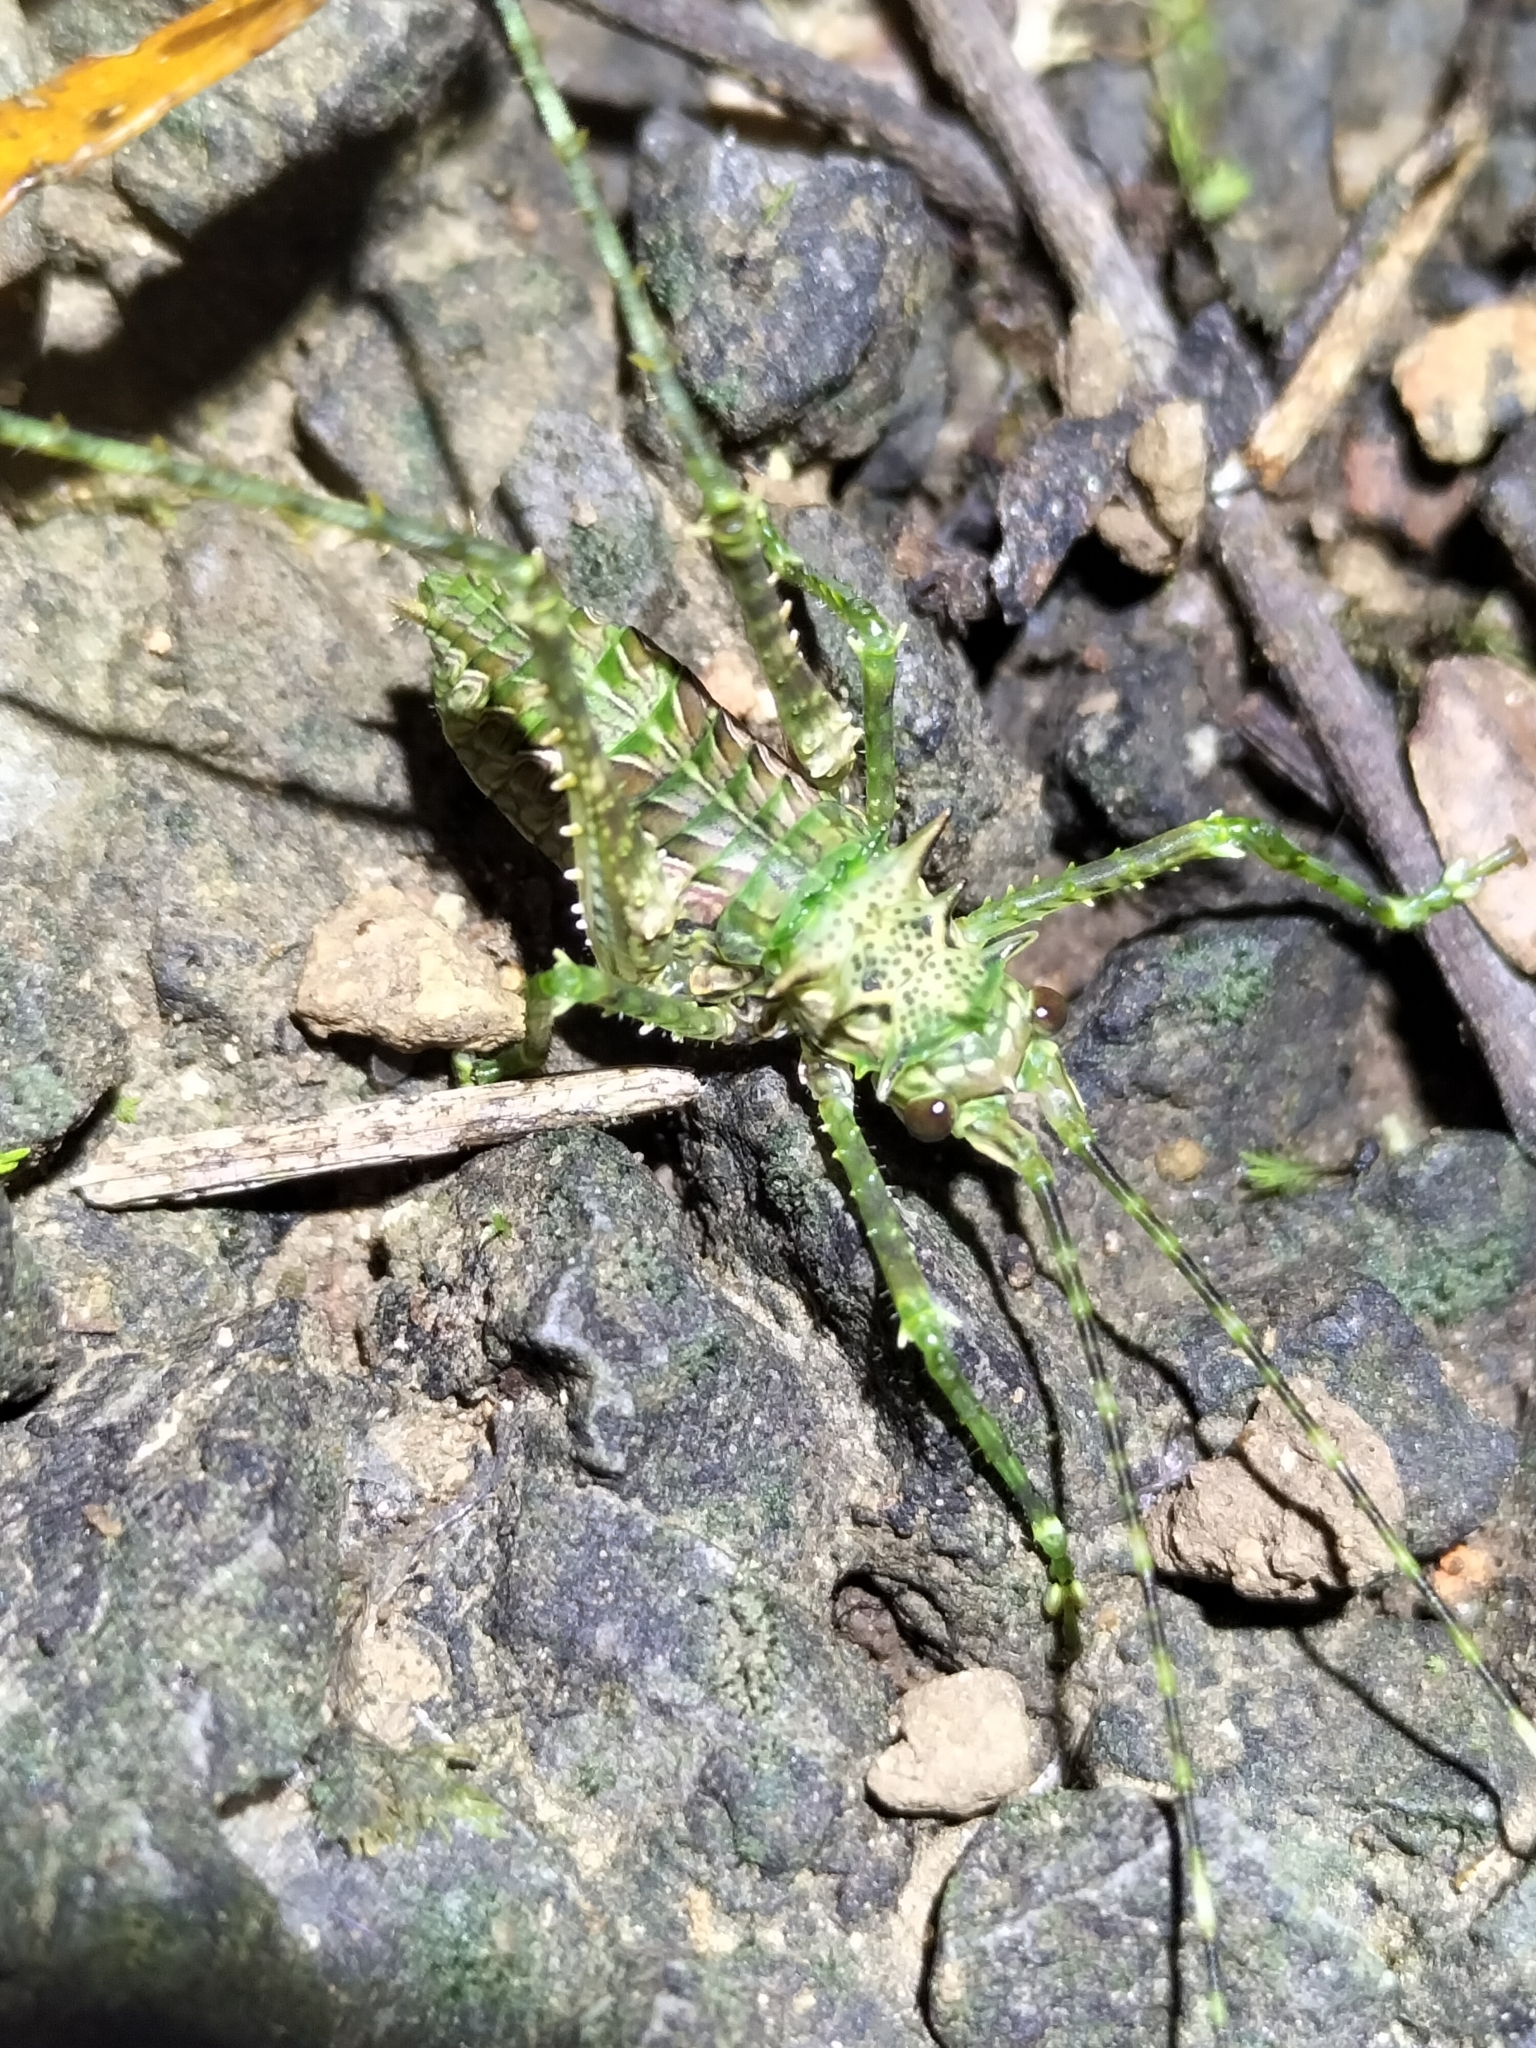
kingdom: Animalia
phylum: Arthropoda
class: Insecta
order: Orthoptera
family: Tettigoniidae
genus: Phricta
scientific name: Phricta tortuwallina
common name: Silent spiny katydid
